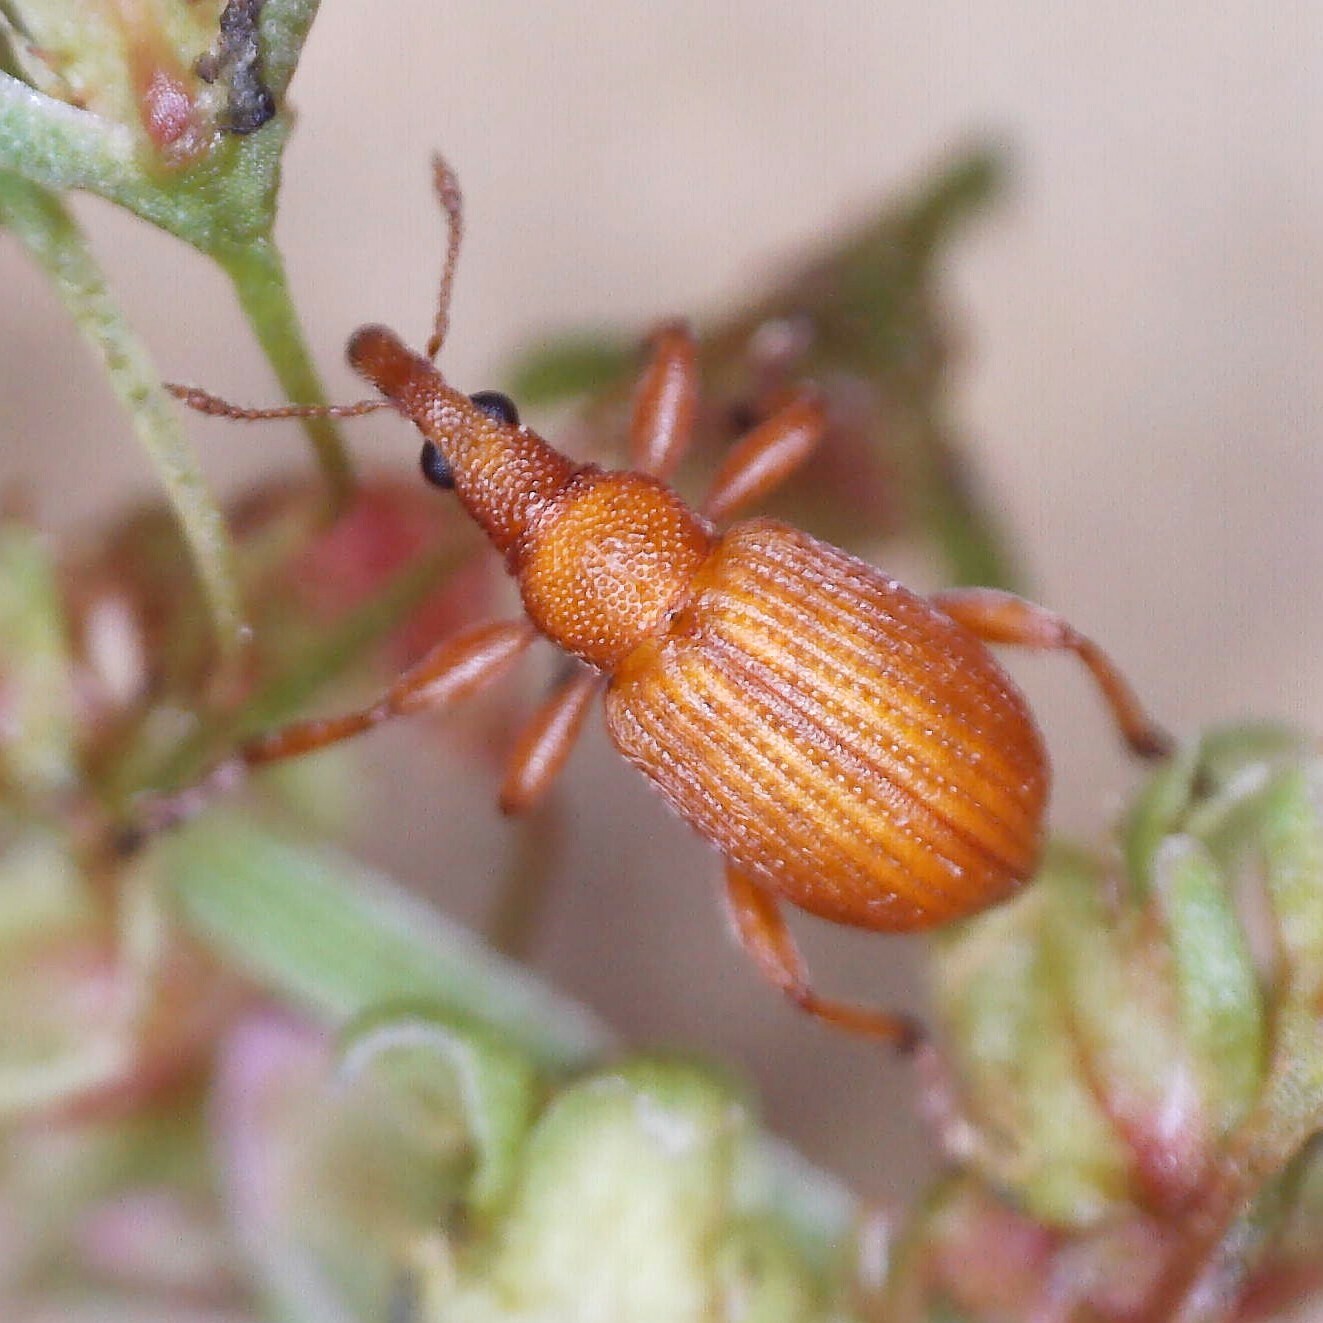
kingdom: Animalia
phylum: Arthropoda
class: Insecta
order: Coleoptera
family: Apionidae
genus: Apion
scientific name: Apion frumentarium
